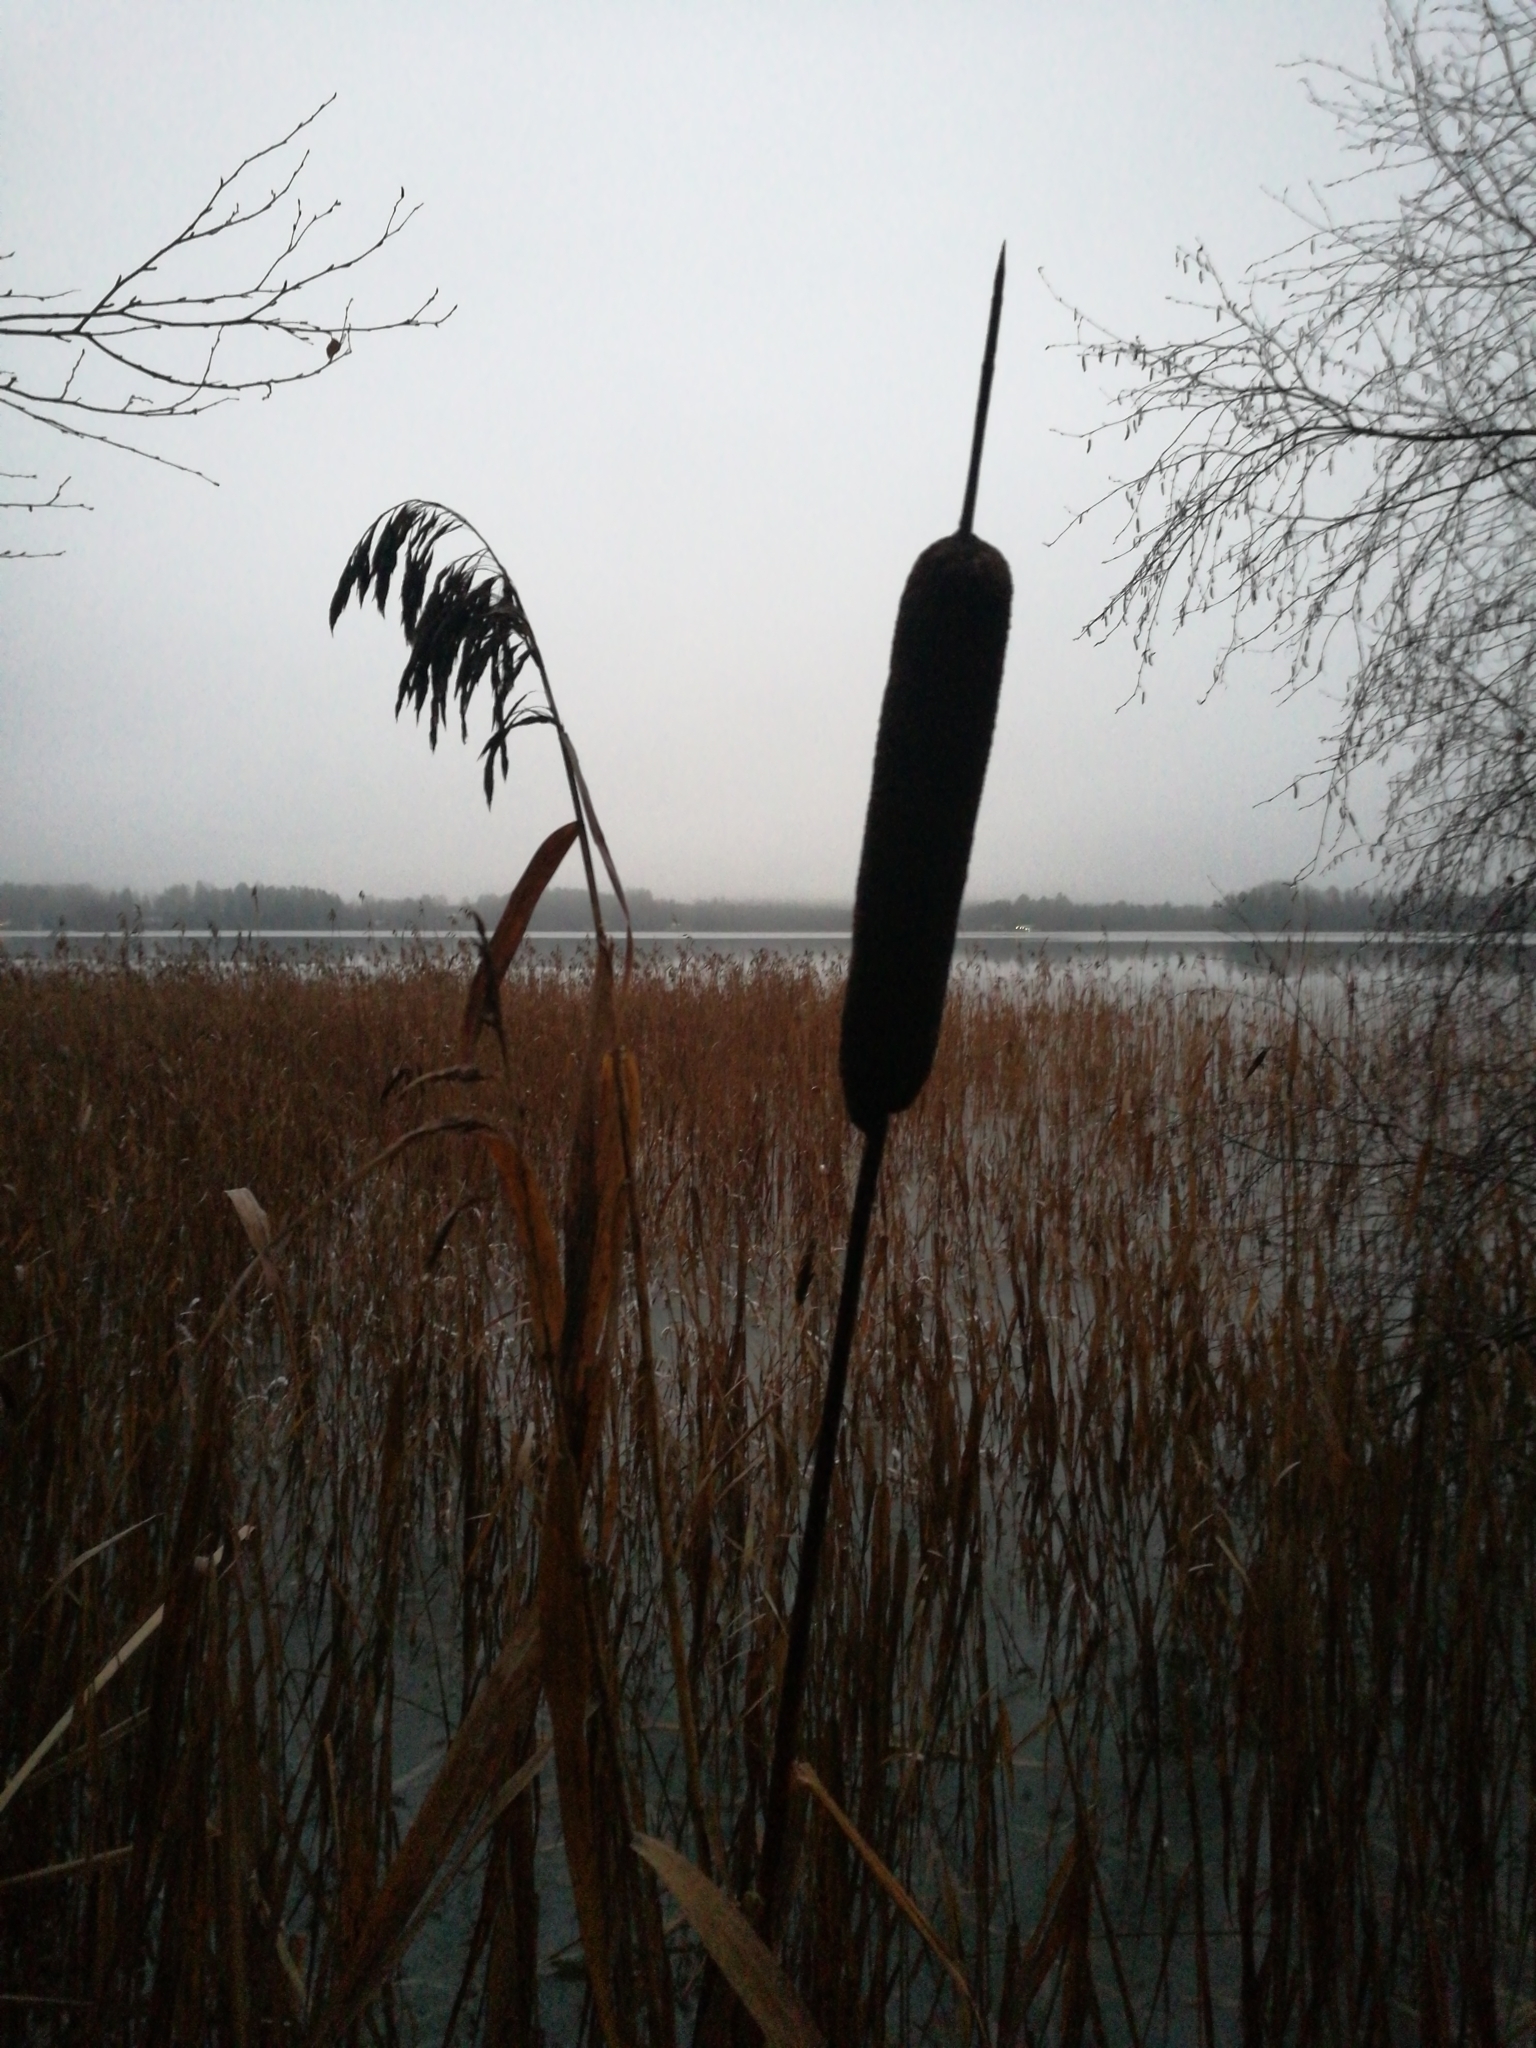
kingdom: Plantae
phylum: Tracheophyta
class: Liliopsida
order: Poales
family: Typhaceae
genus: Typha
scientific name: Typha latifolia
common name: Broadleaf cattail
